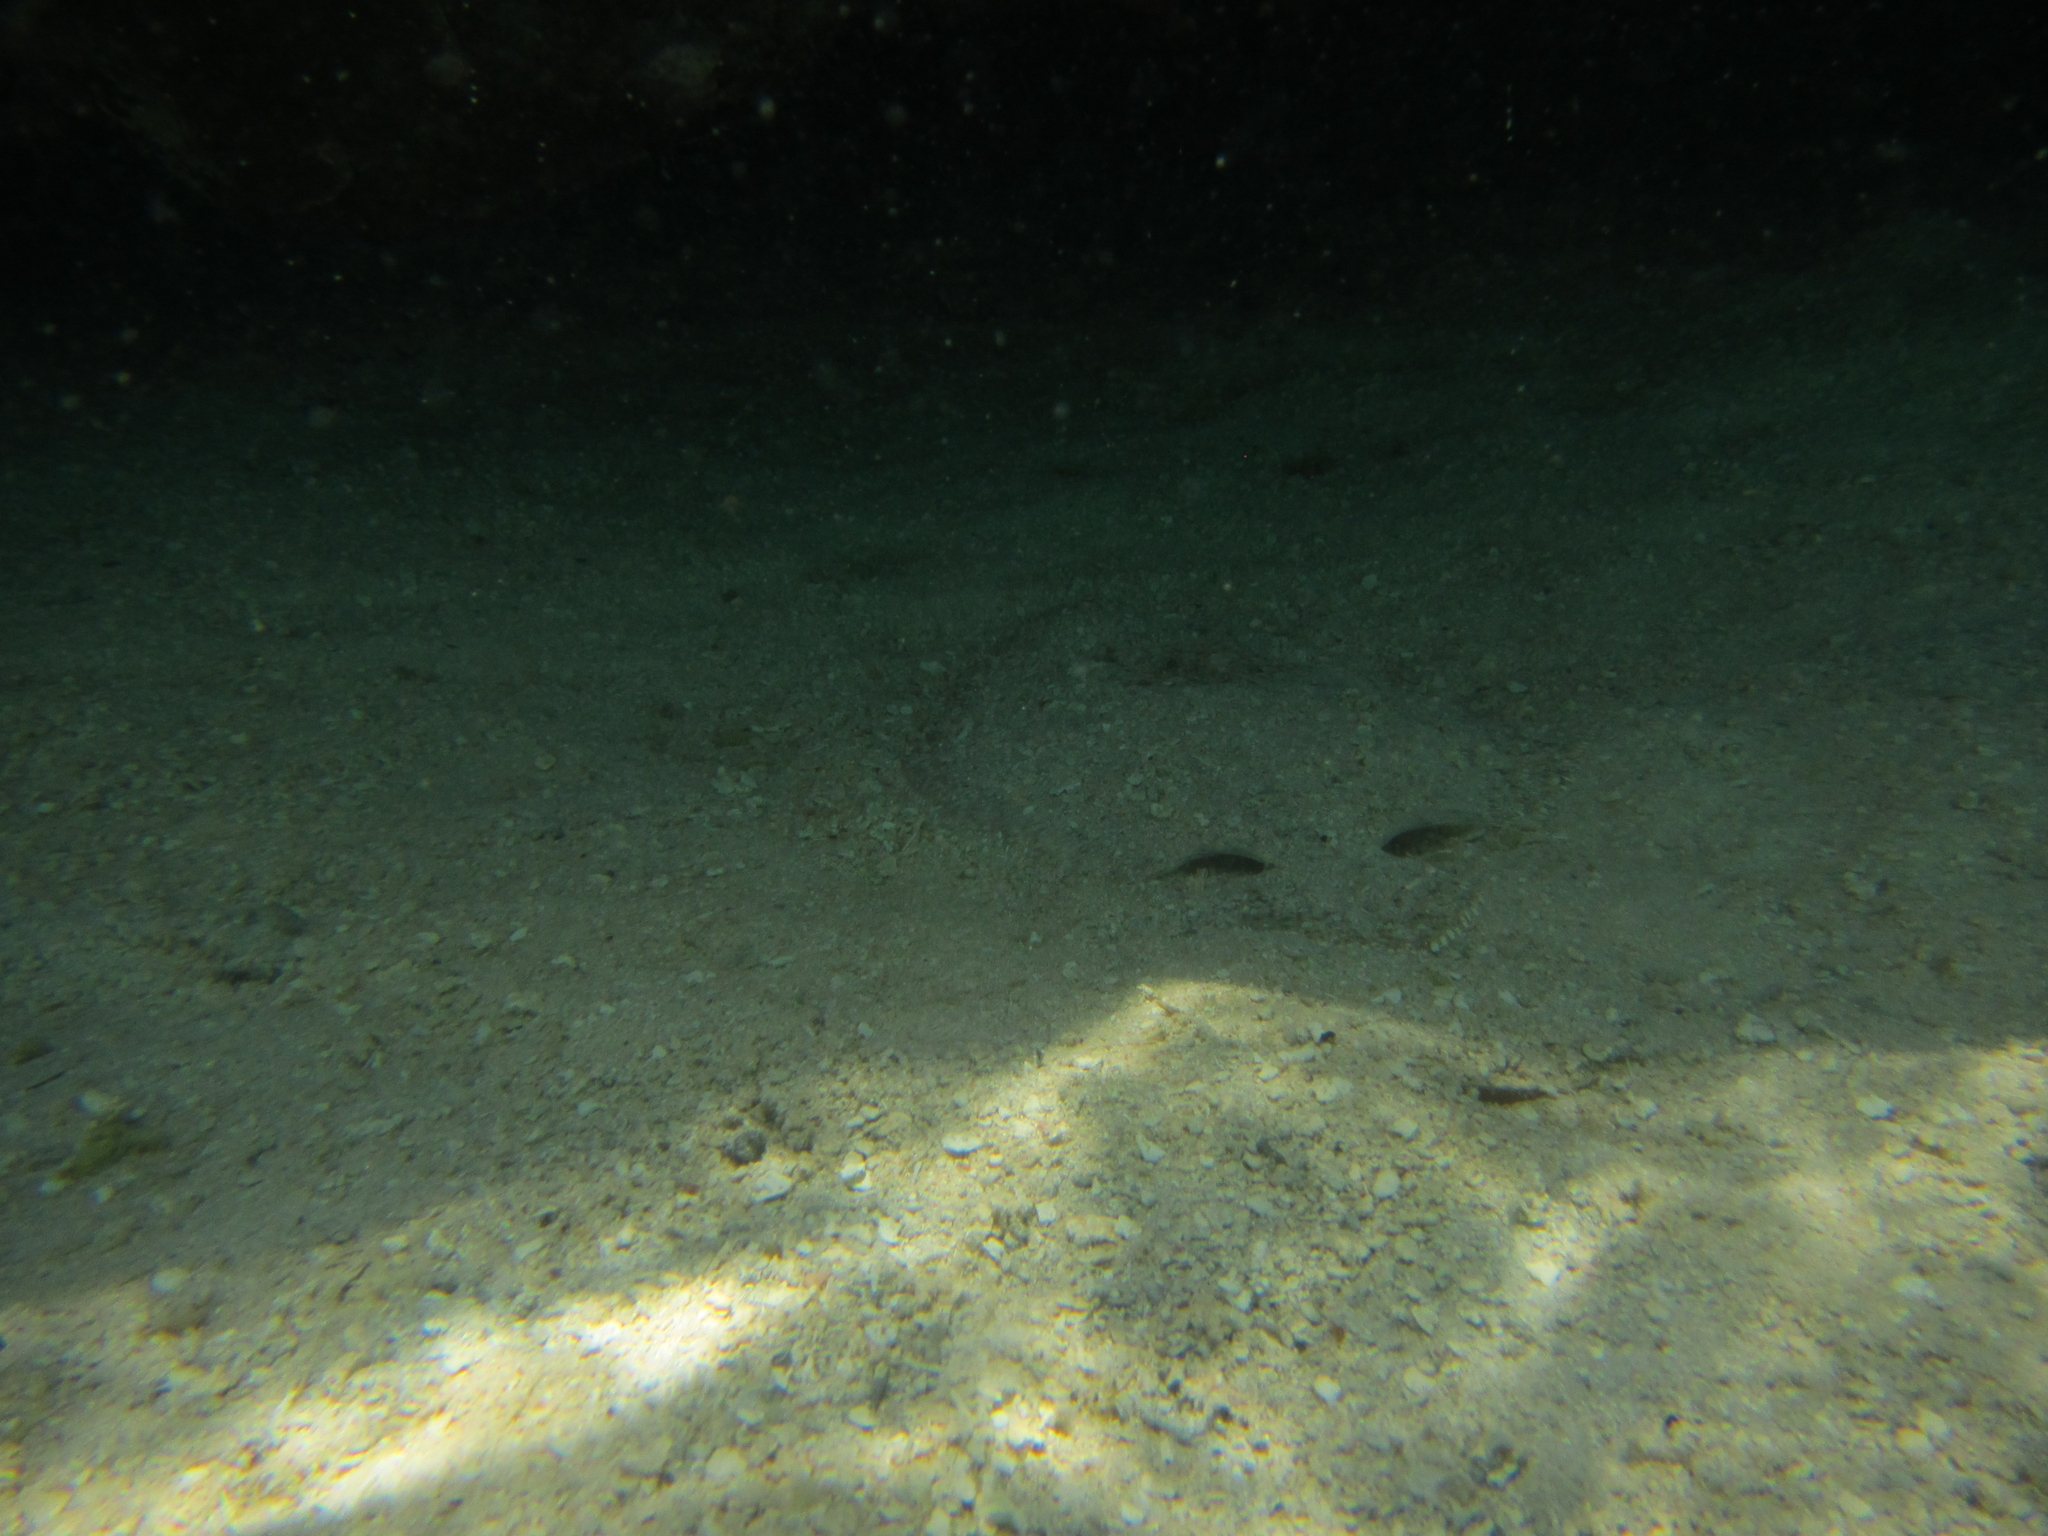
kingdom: Animalia
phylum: Chordata
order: Pleuronectiformes
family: Bothidae
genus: Bothus
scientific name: Bothus mancus
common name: Flowery flounder
